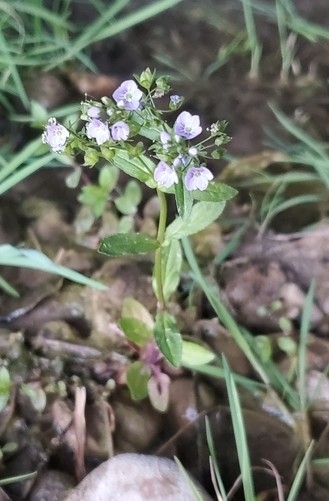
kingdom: Plantae
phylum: Tracheophyta
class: Magnoliopsida
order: Lamiales
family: Plantaginaceae
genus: Veronica
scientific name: Veronica anagallis-aquatica
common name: Water speedwell
